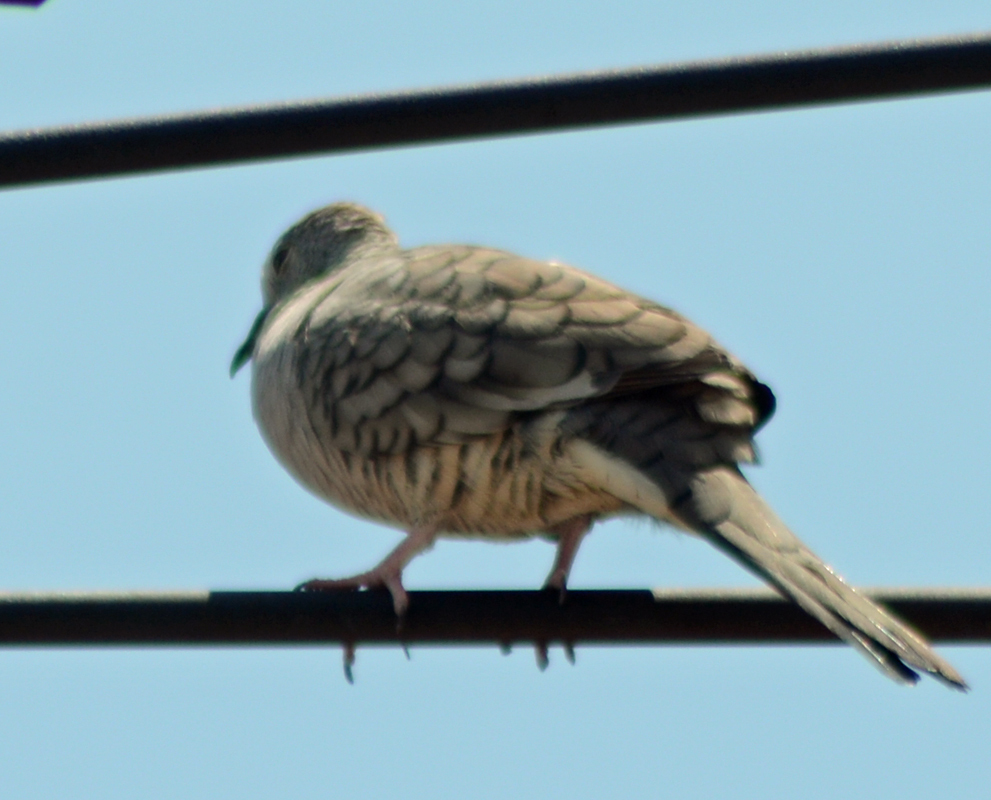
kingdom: Animalia
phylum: Chordata
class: Aves
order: Columbiformes
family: Columbidae
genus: Columbina
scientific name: Columbina inca
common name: Inca dove
